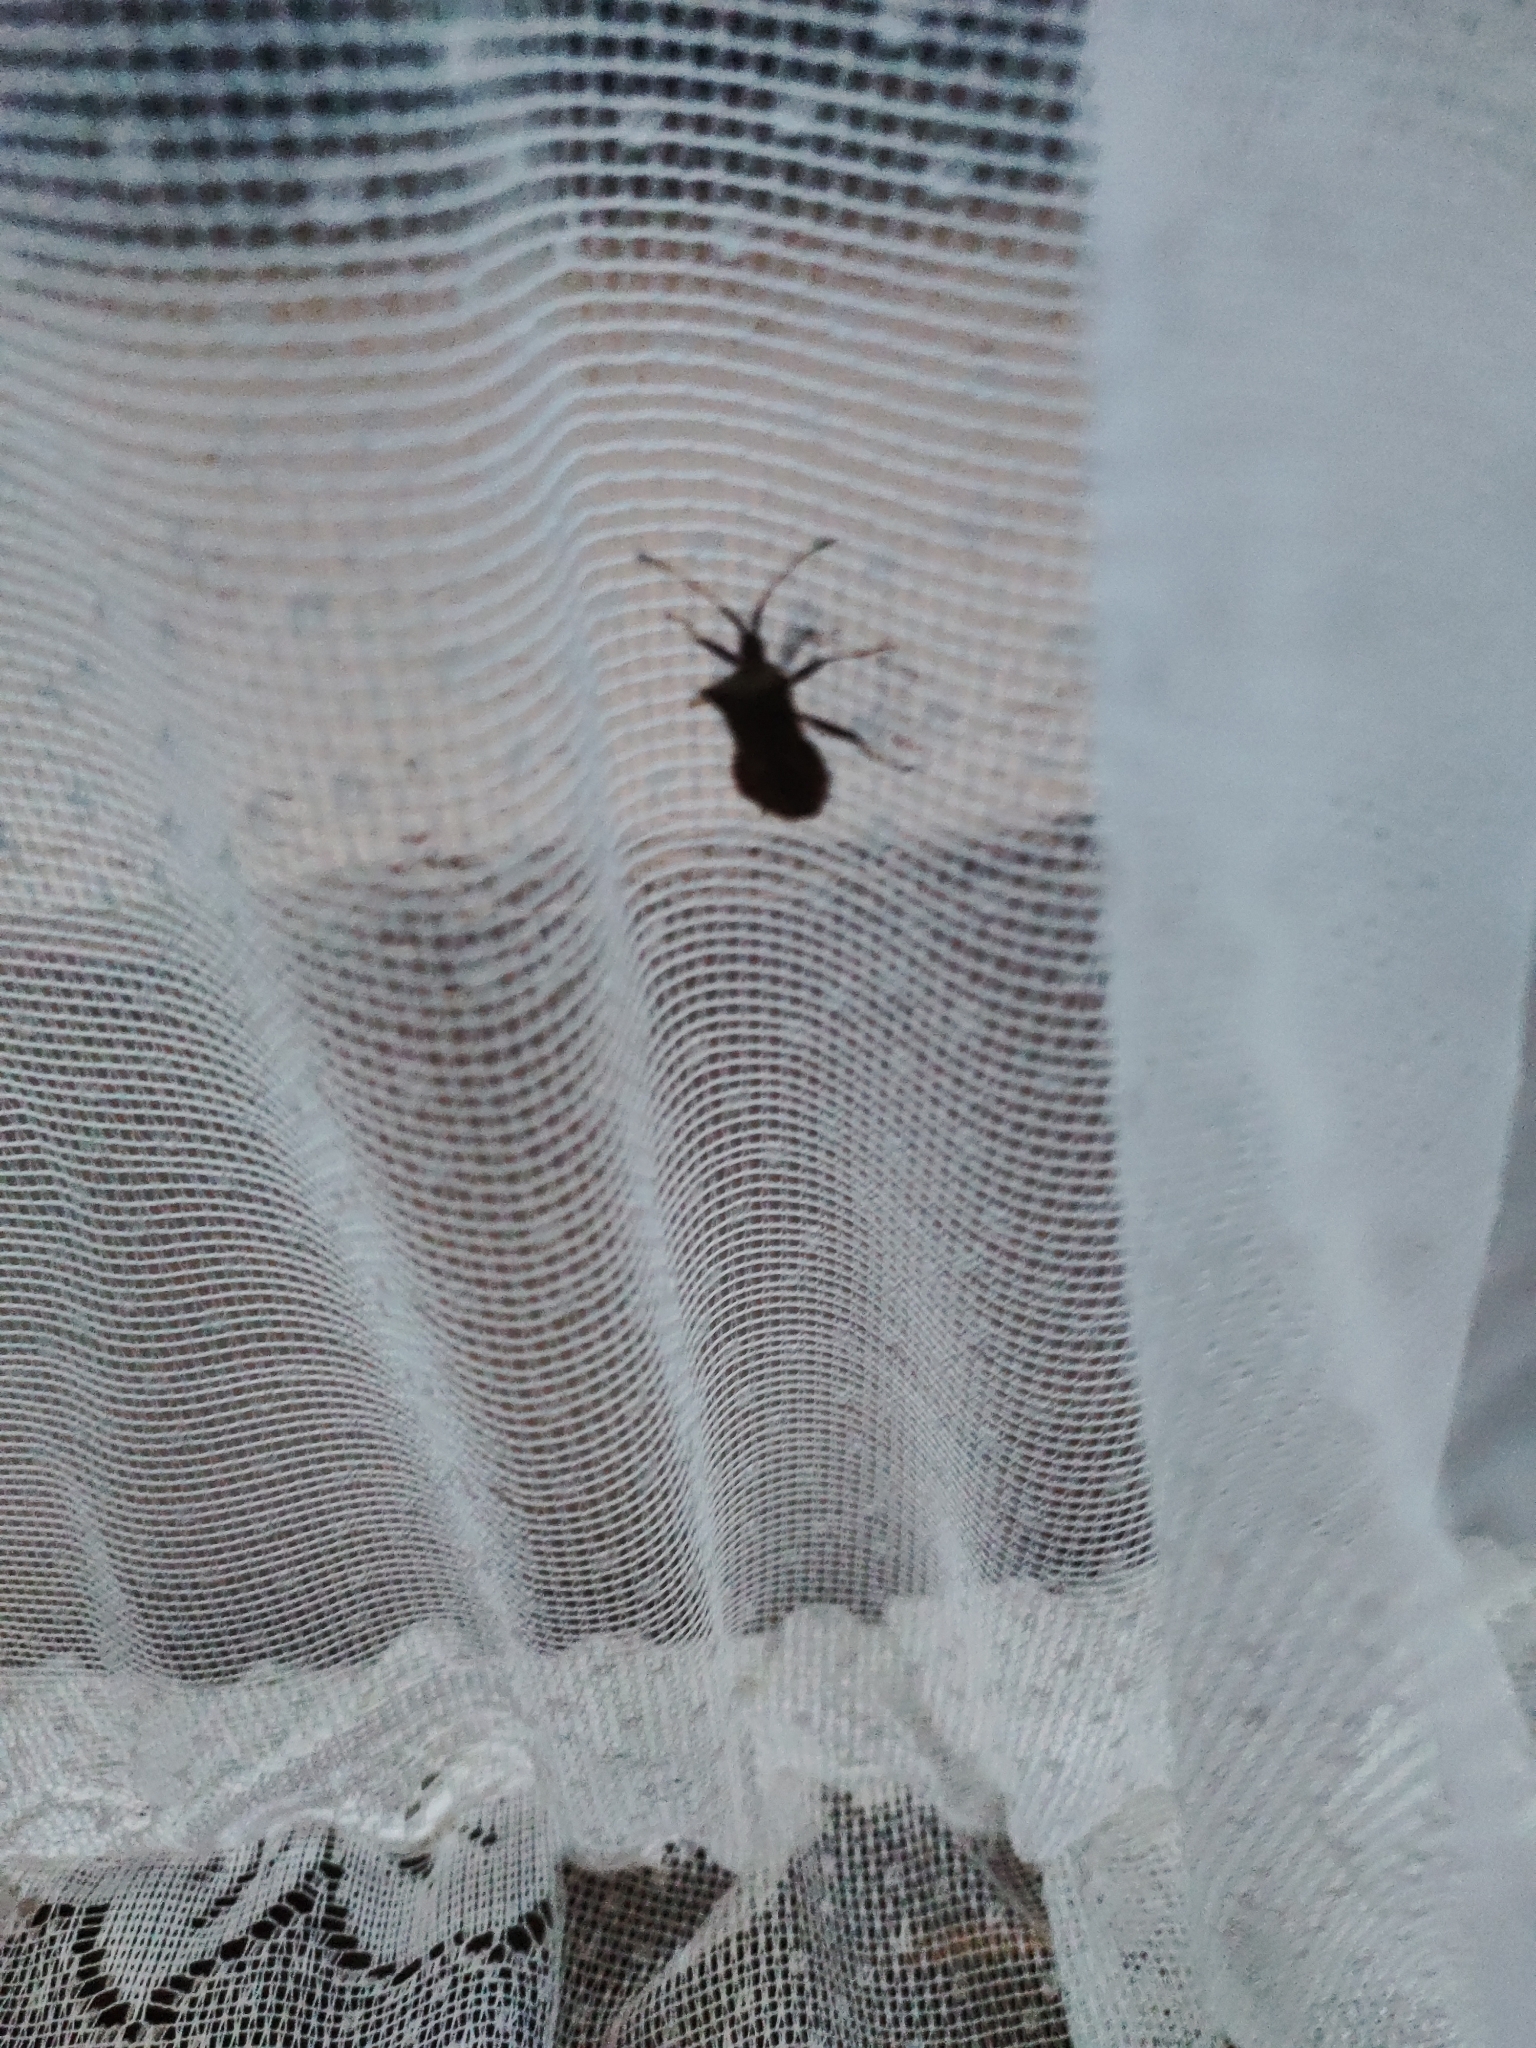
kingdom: Animalia
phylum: Arthropoda
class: Insecta
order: Hemiptera
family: Coreidae
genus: Coreus
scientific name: Coreus marginatus
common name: Dock bug
